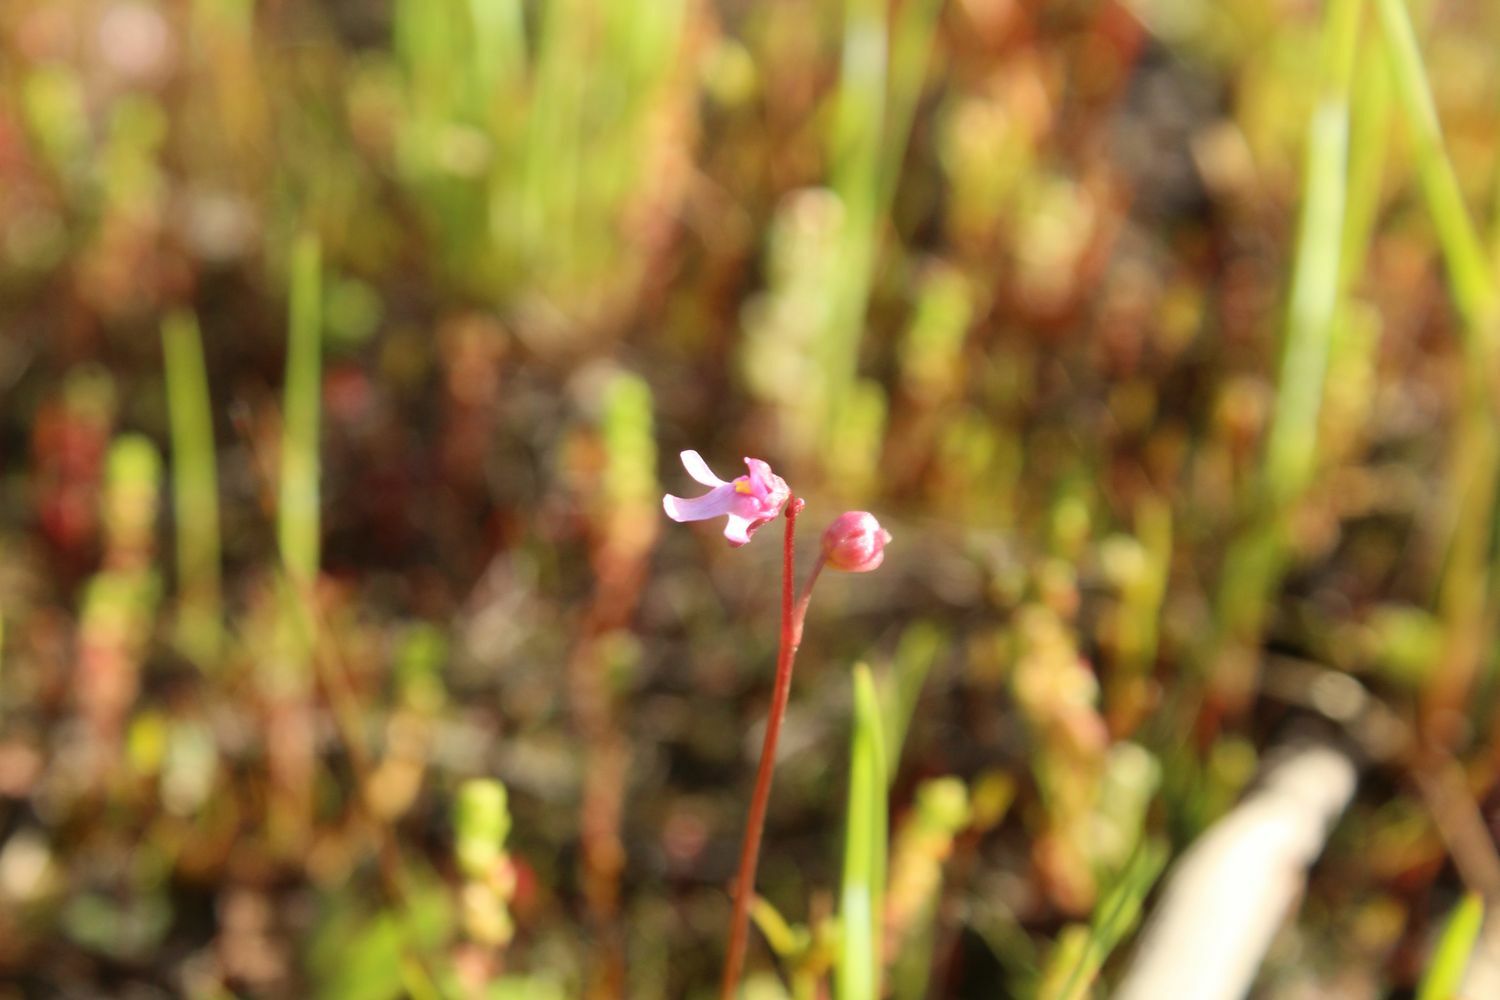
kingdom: Plantae
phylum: Tracheophyta
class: Magnoliopsida
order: Lamiales
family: Lentibulariaceae
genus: Utricularia
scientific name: Utricularia tenella
